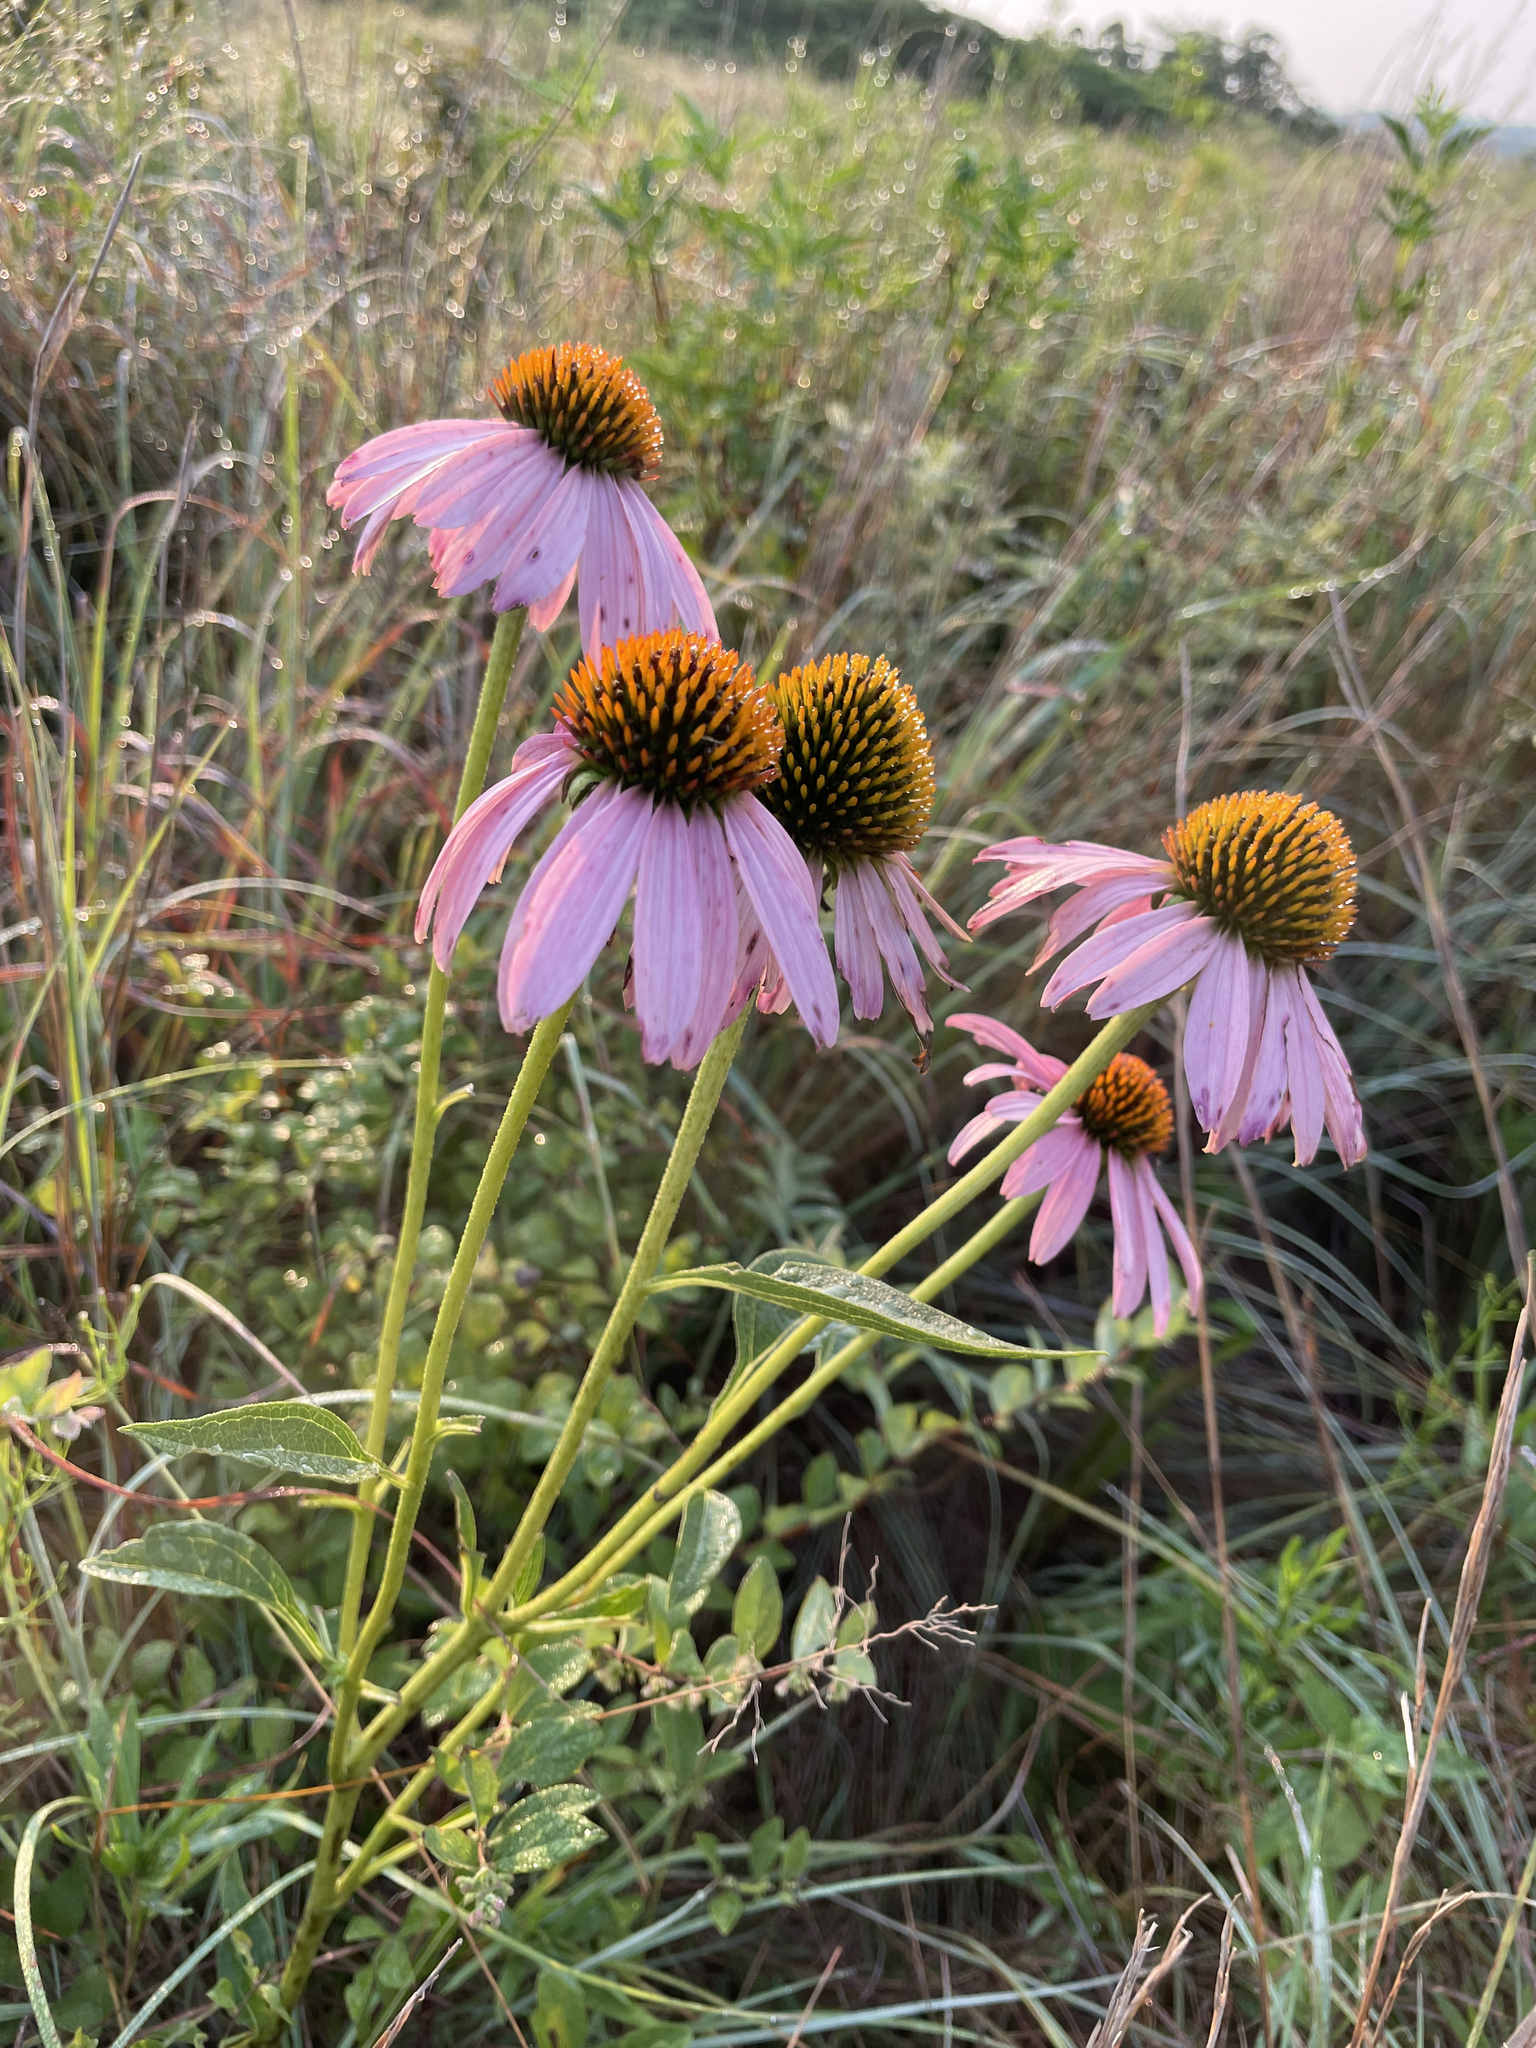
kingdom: Plantae
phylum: Tracheophyta
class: Magnoliopsida
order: Asterales
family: Asteraceae
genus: Echinacea
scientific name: Echinacea purpurea
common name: Broad-leaved purple coneflower
